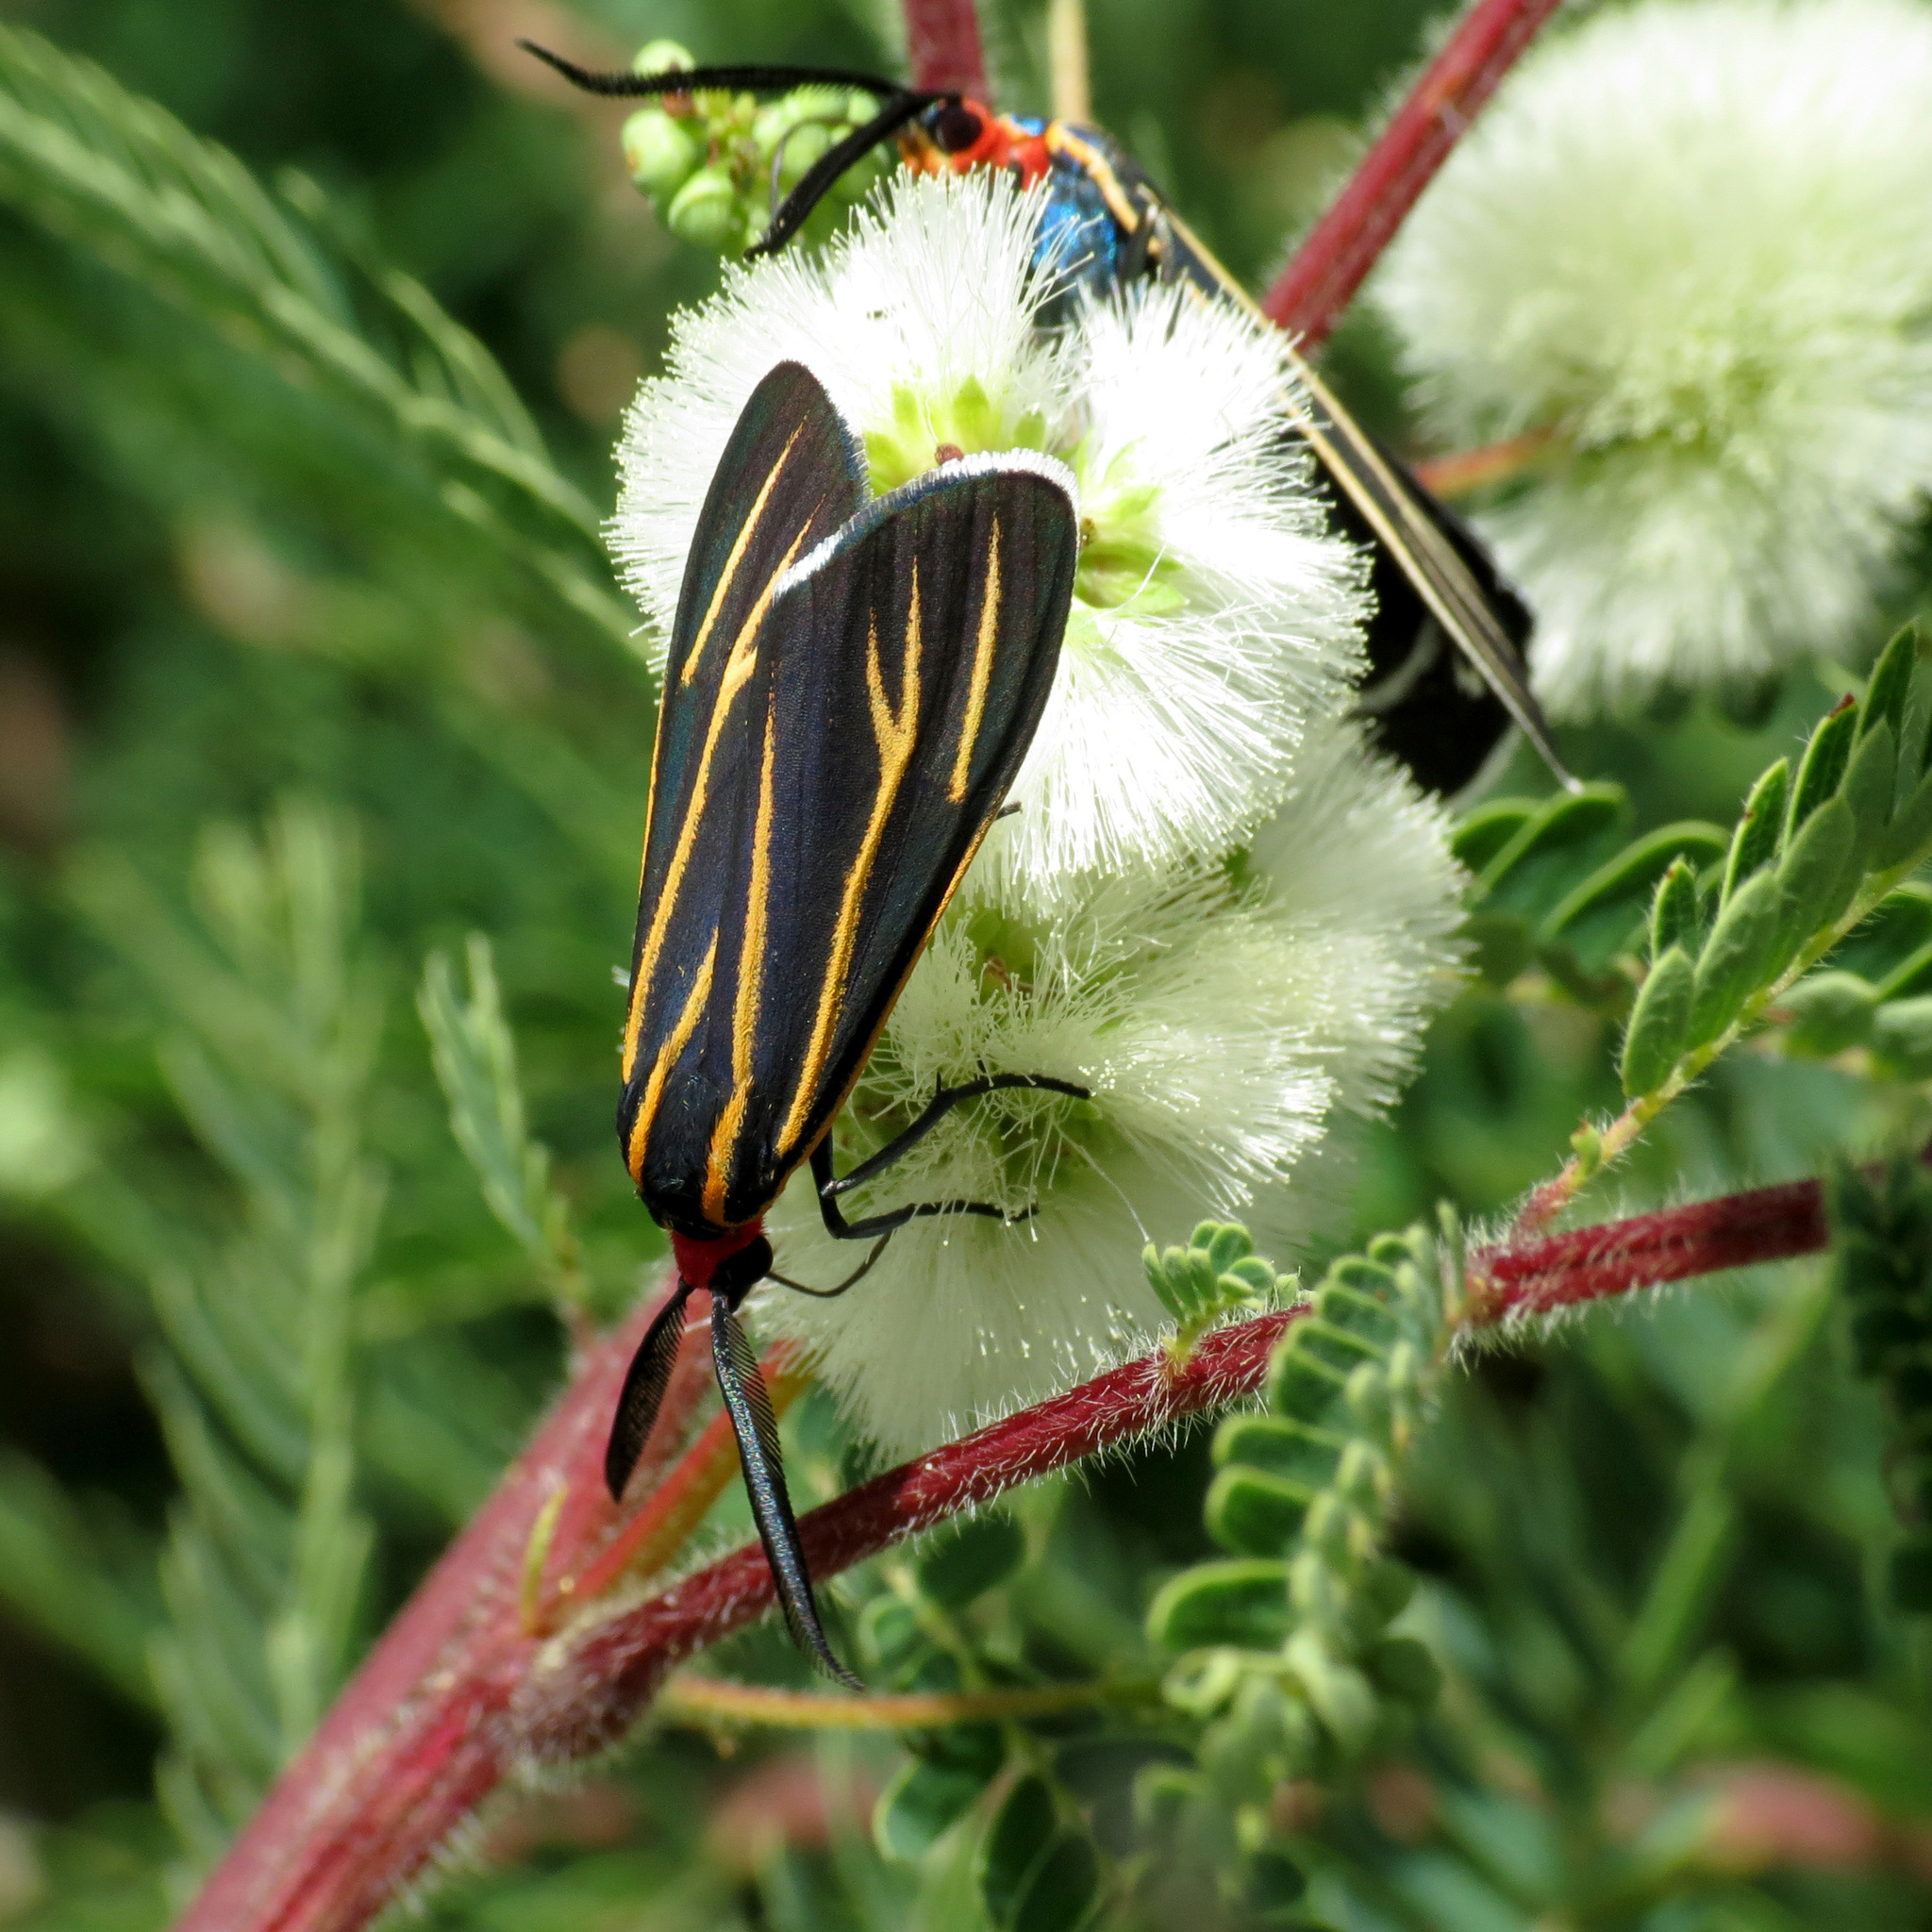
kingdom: Animalia
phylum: Arthropoda
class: Insecta
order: Lepidoptera
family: Erebidae
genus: Ctenucha
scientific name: Ctenucha venosa
